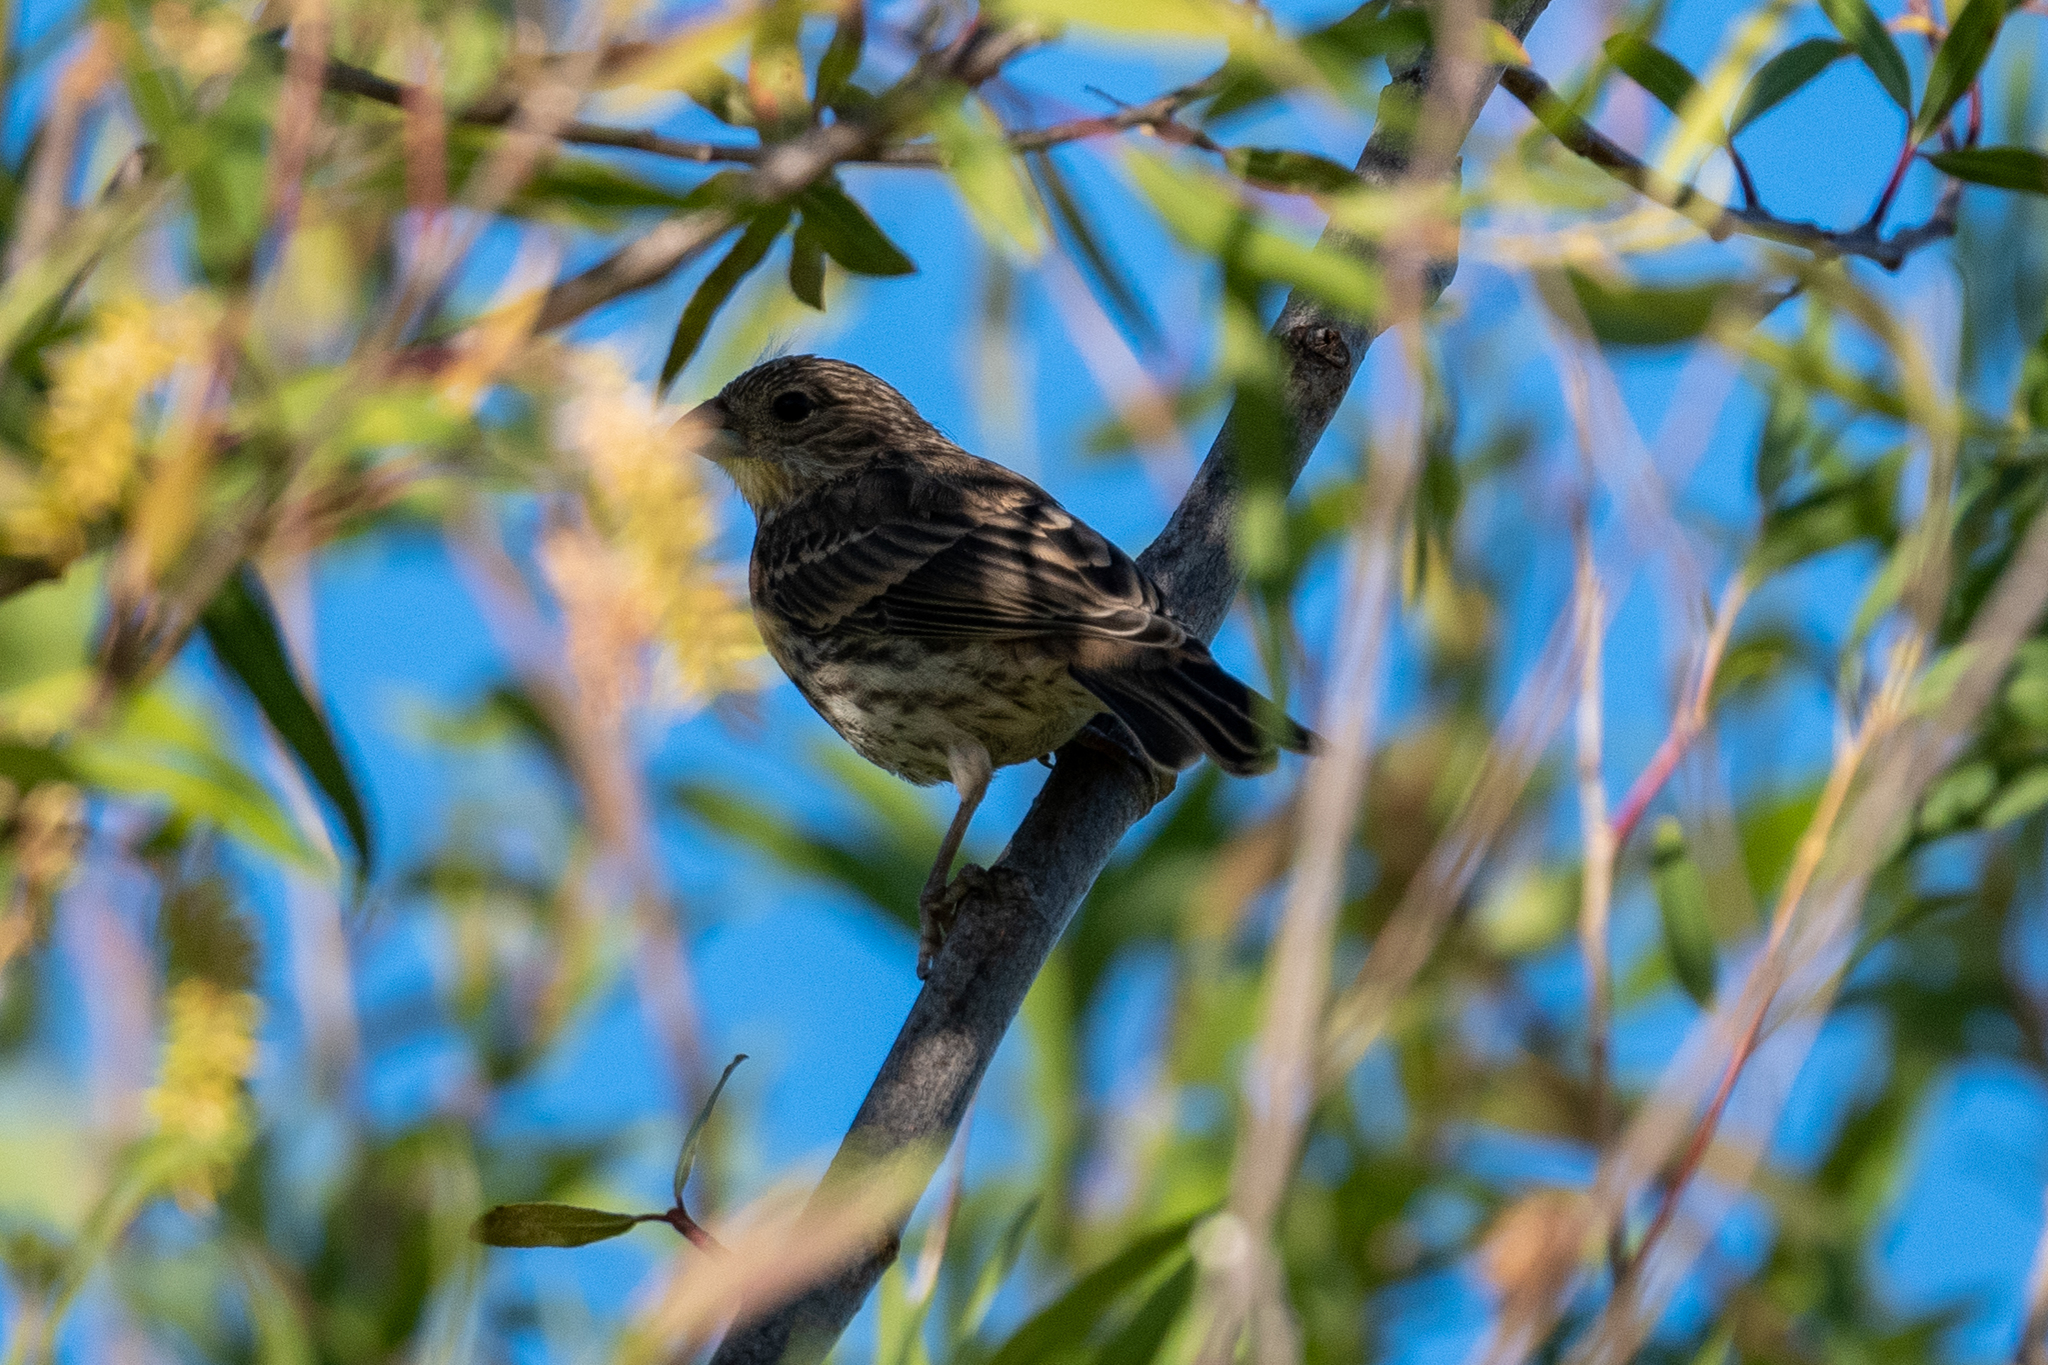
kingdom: Animalia
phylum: Chordata
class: Aves
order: Passeriformes
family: Fringillidae
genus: Haemorhous
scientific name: Haemorhous mexicanus
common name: House finch
